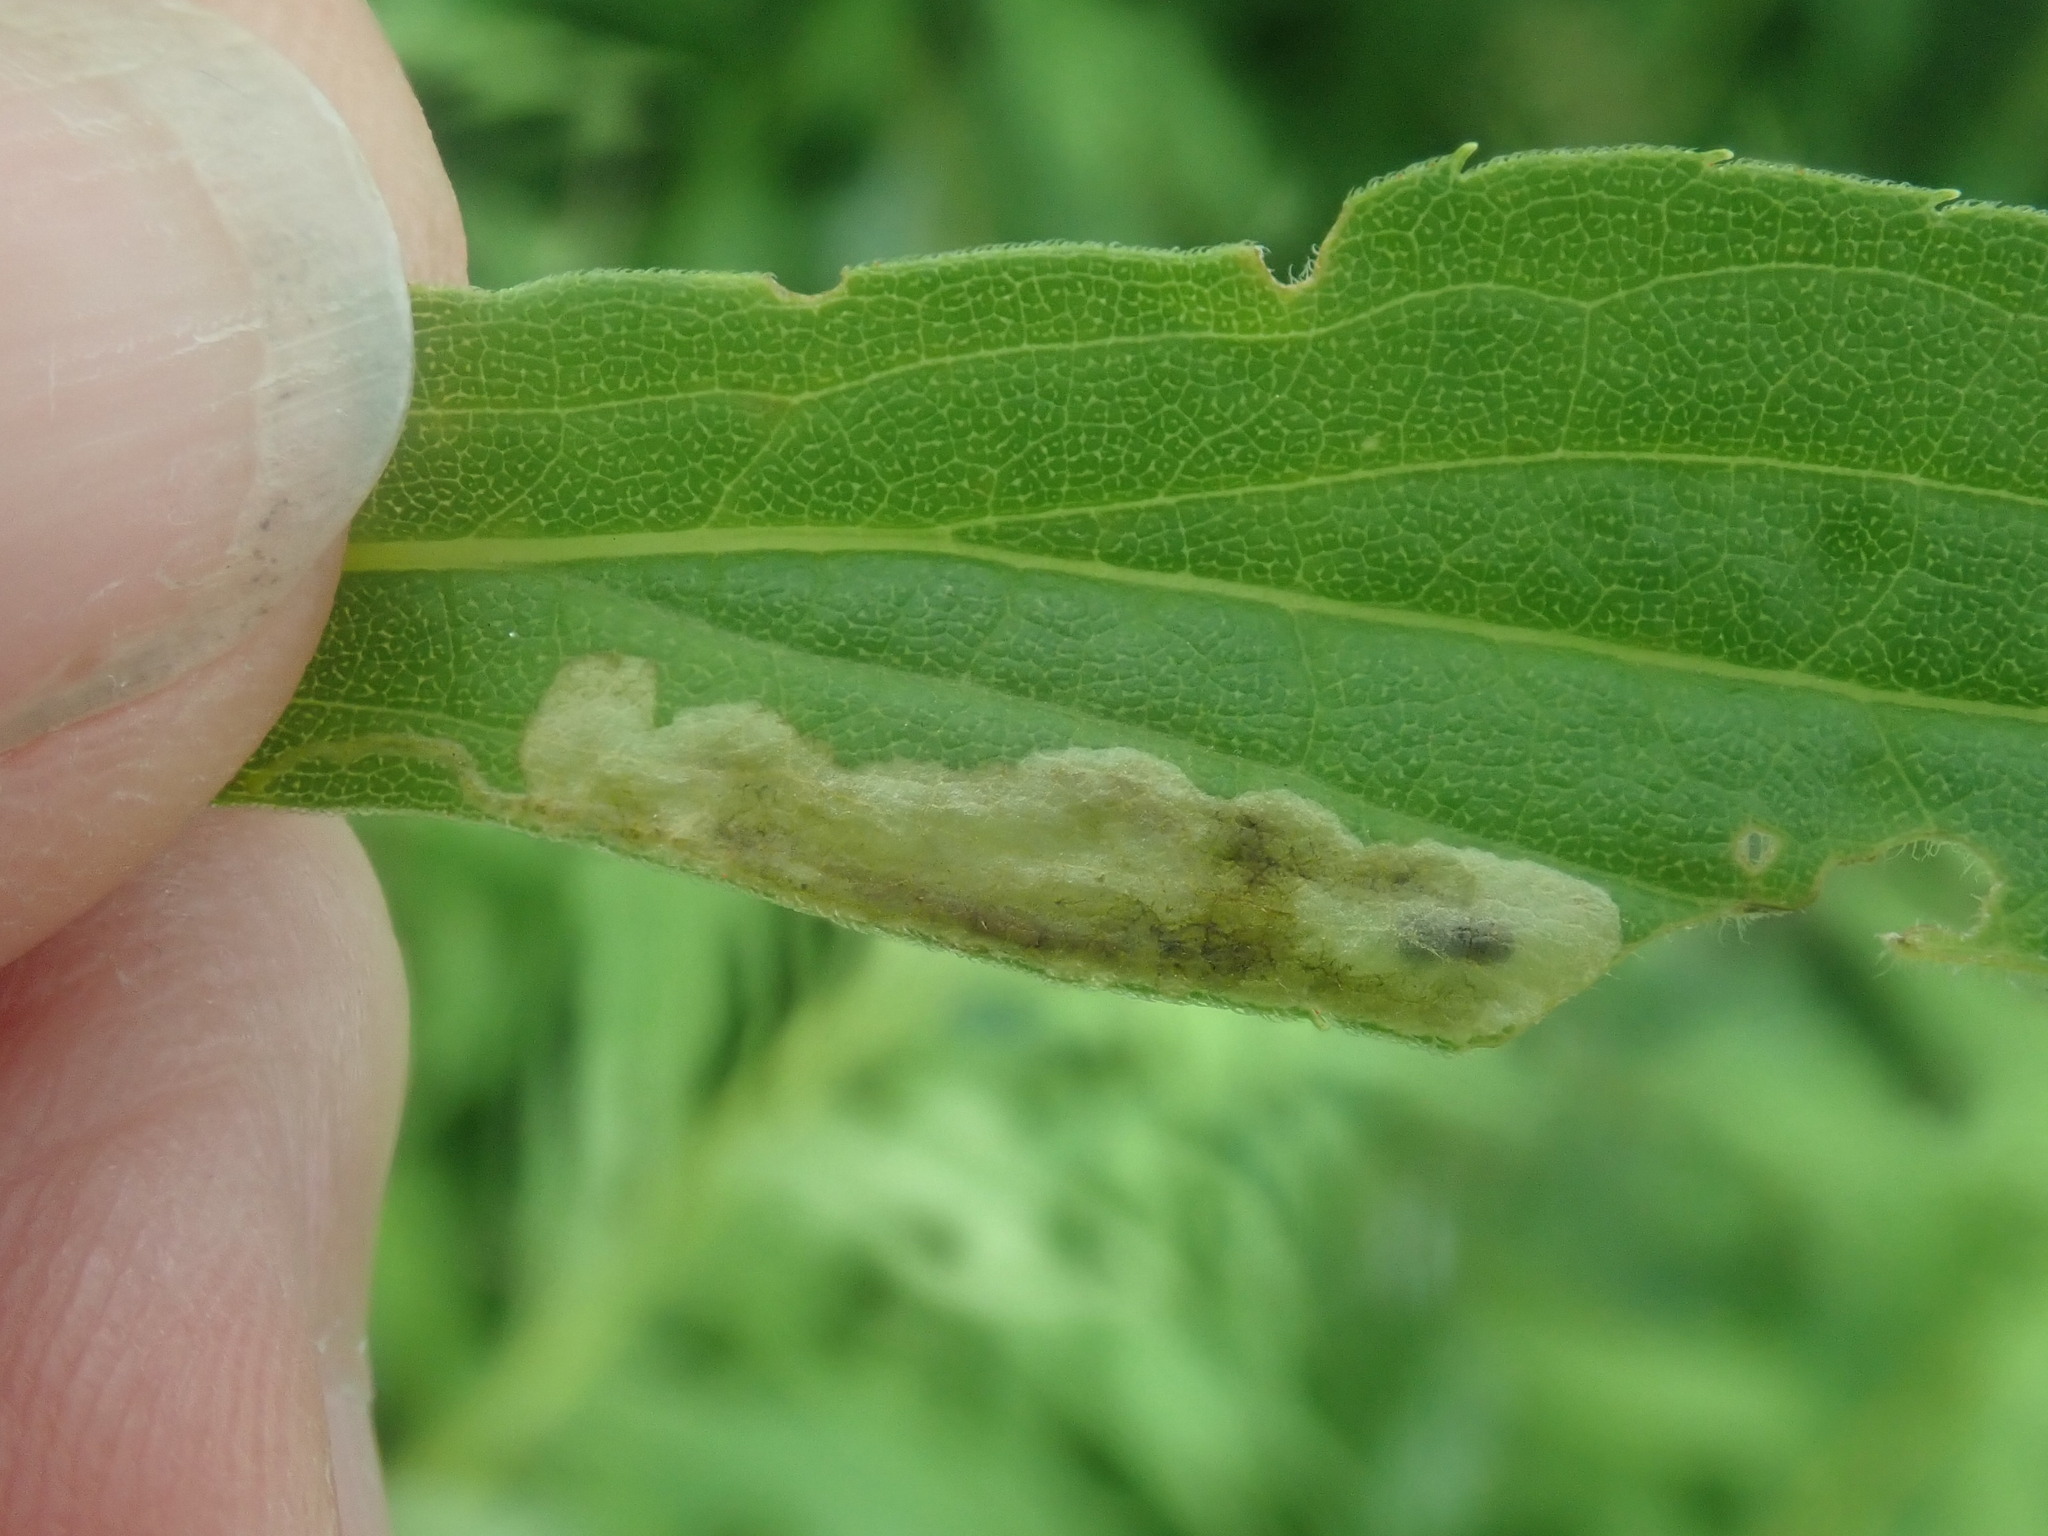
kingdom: Animalia
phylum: Arthropoda
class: Insecta
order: Diptera
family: Agromyzidae
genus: Calycomyza
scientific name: Calycomyza solidaginis
